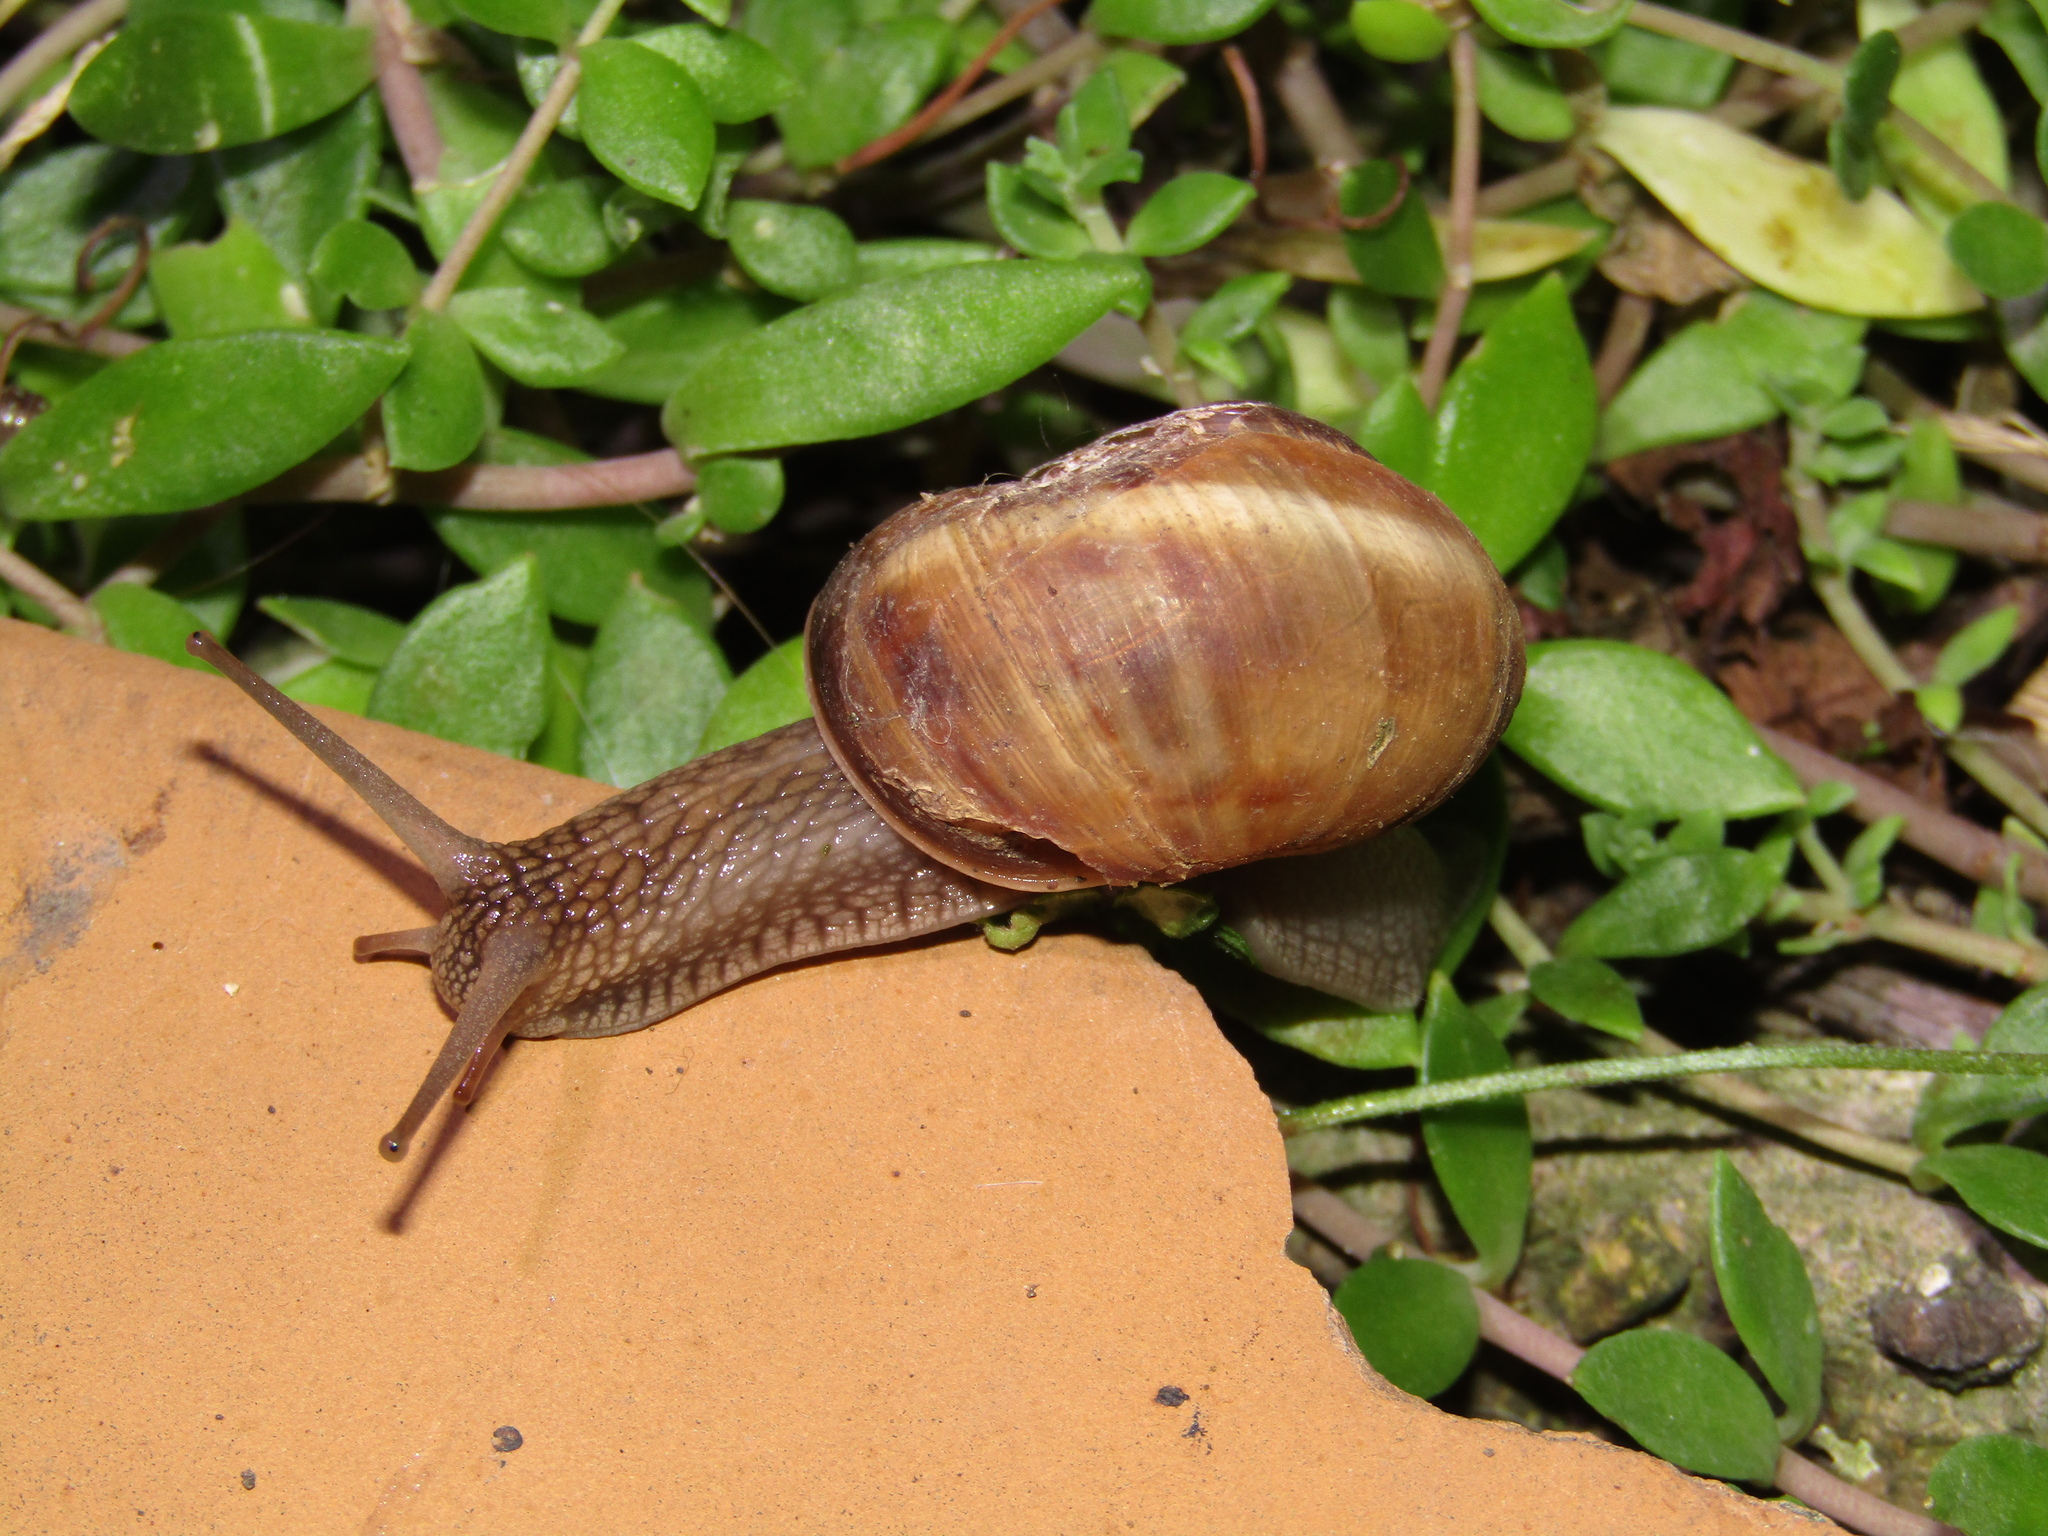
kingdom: Animalia
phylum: Mollusca
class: Gastropoda
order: Stylommatophora
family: Helicidae
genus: Helix
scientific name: Helix lucorum
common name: Turkish snail
